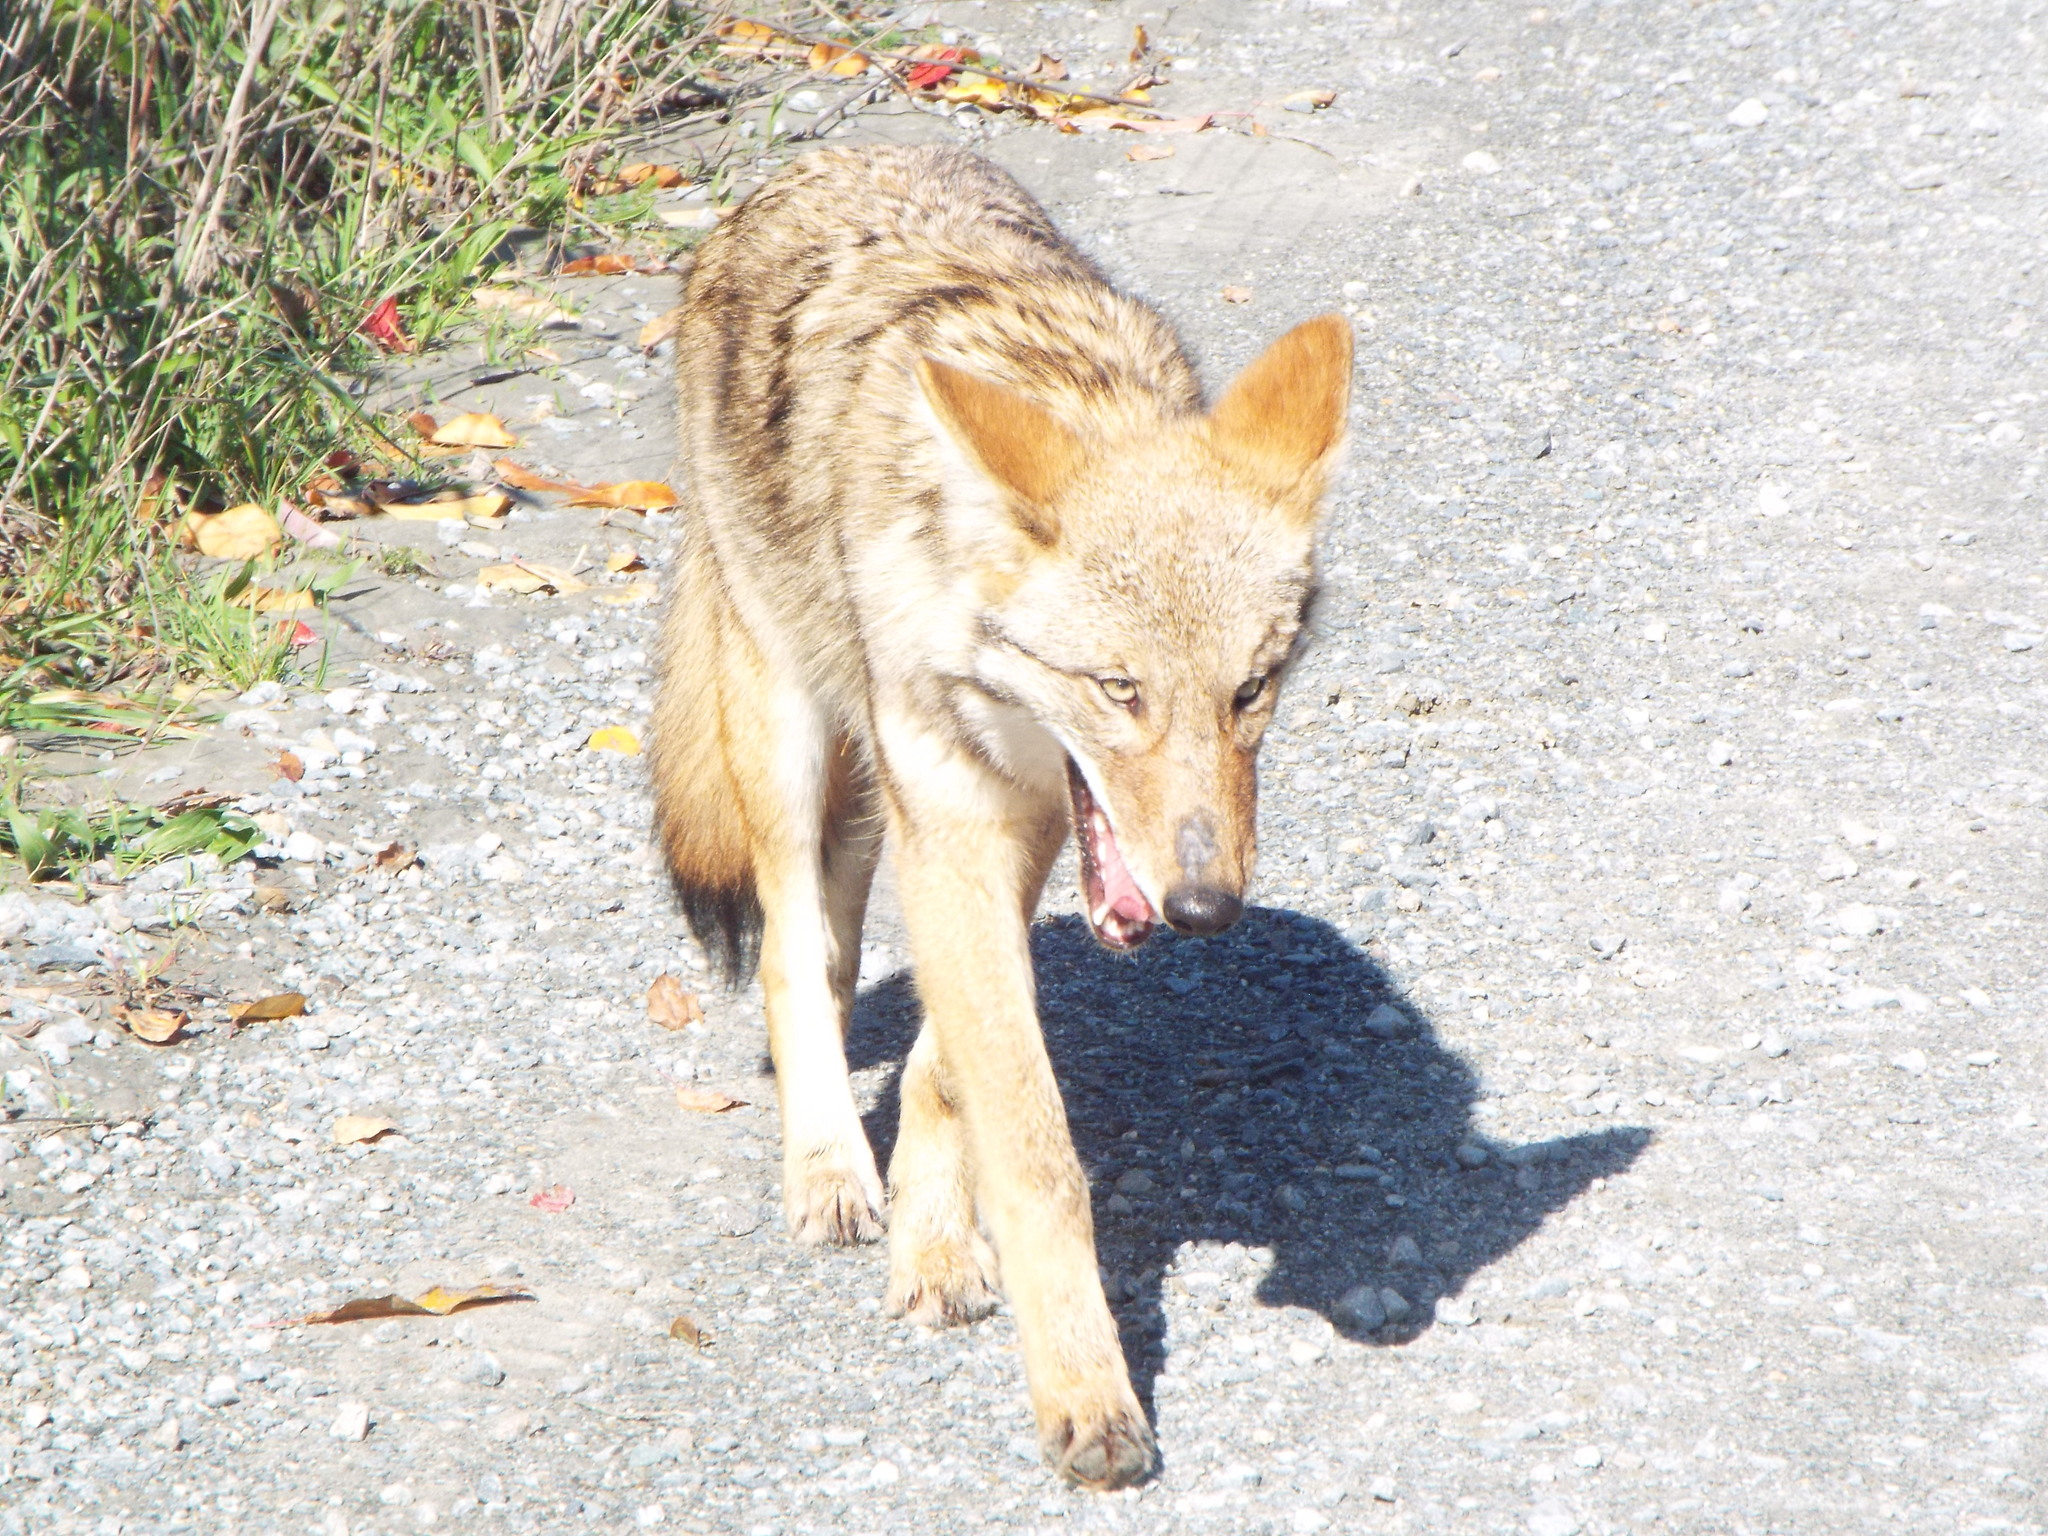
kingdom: Animalia
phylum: Chordata
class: Mammalia
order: Carnivora
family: Canidae
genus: Canis
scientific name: Canis latrans
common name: Coyote
